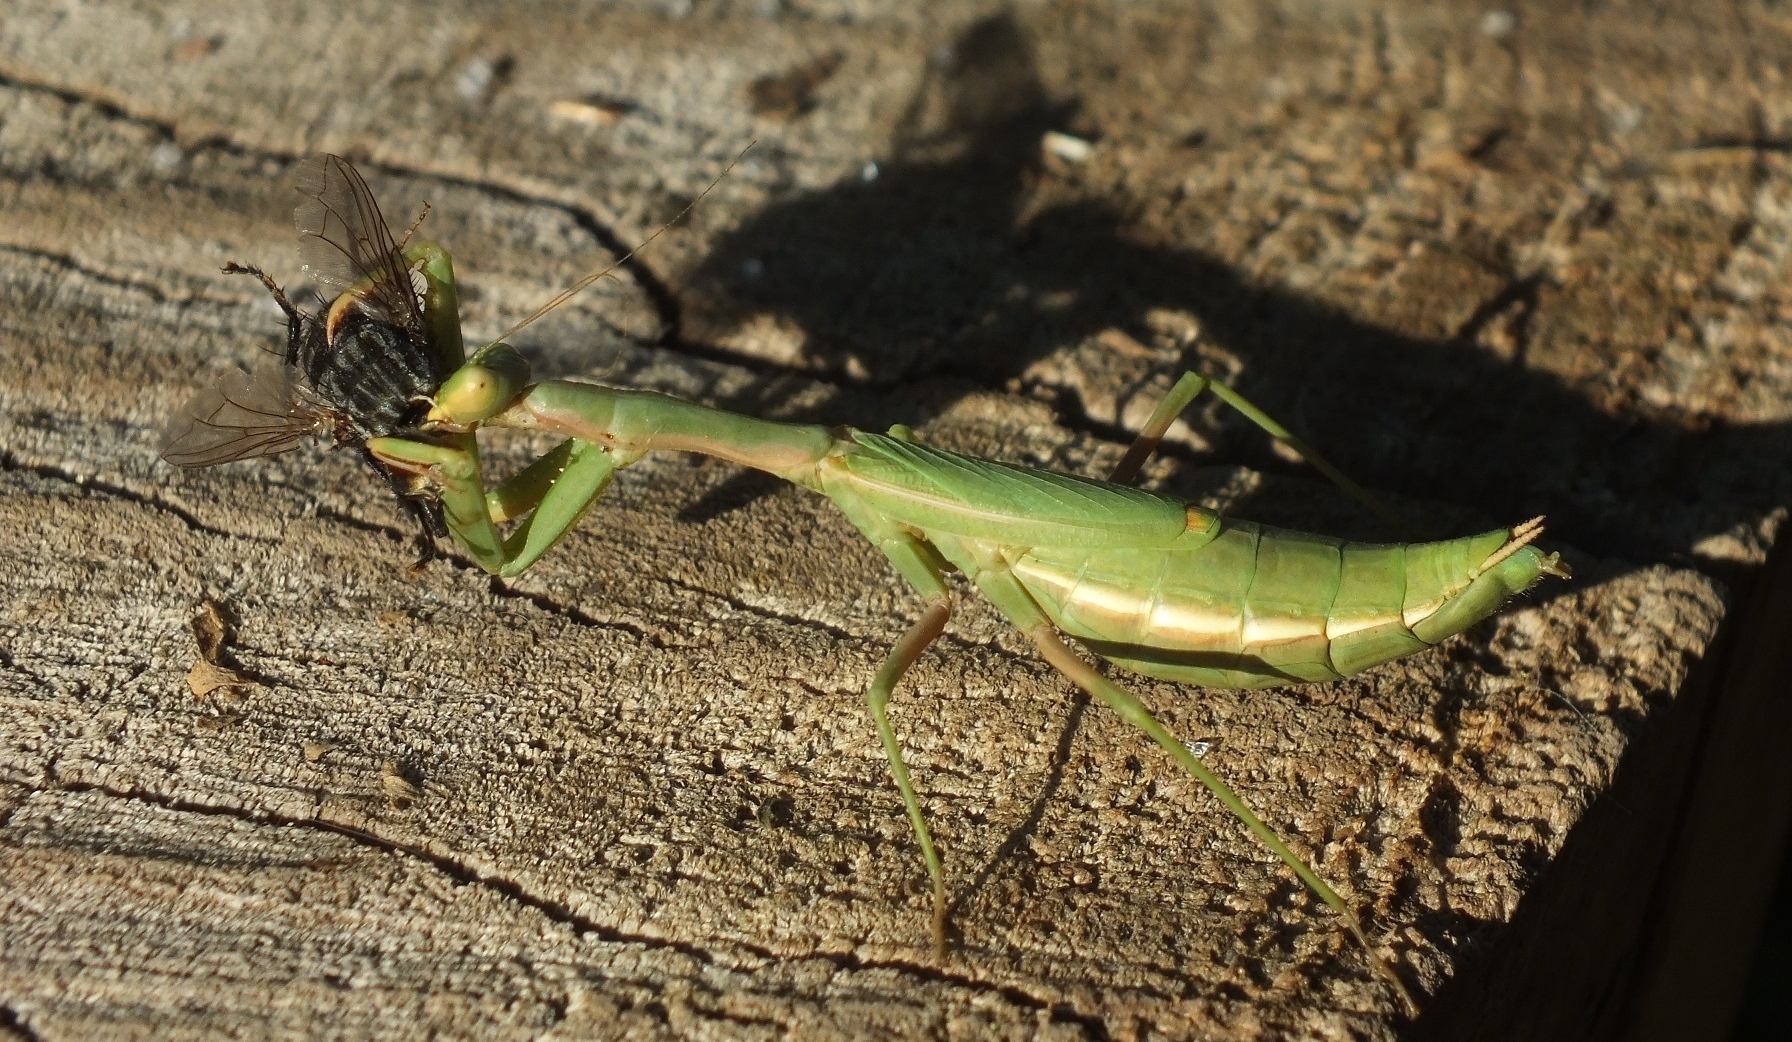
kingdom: Animalia
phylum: Arthropoda
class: Insecta
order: Mantodea
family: Eremiaphilidae
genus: Iris
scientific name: Iris polystictica
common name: Dot-winged mantis
